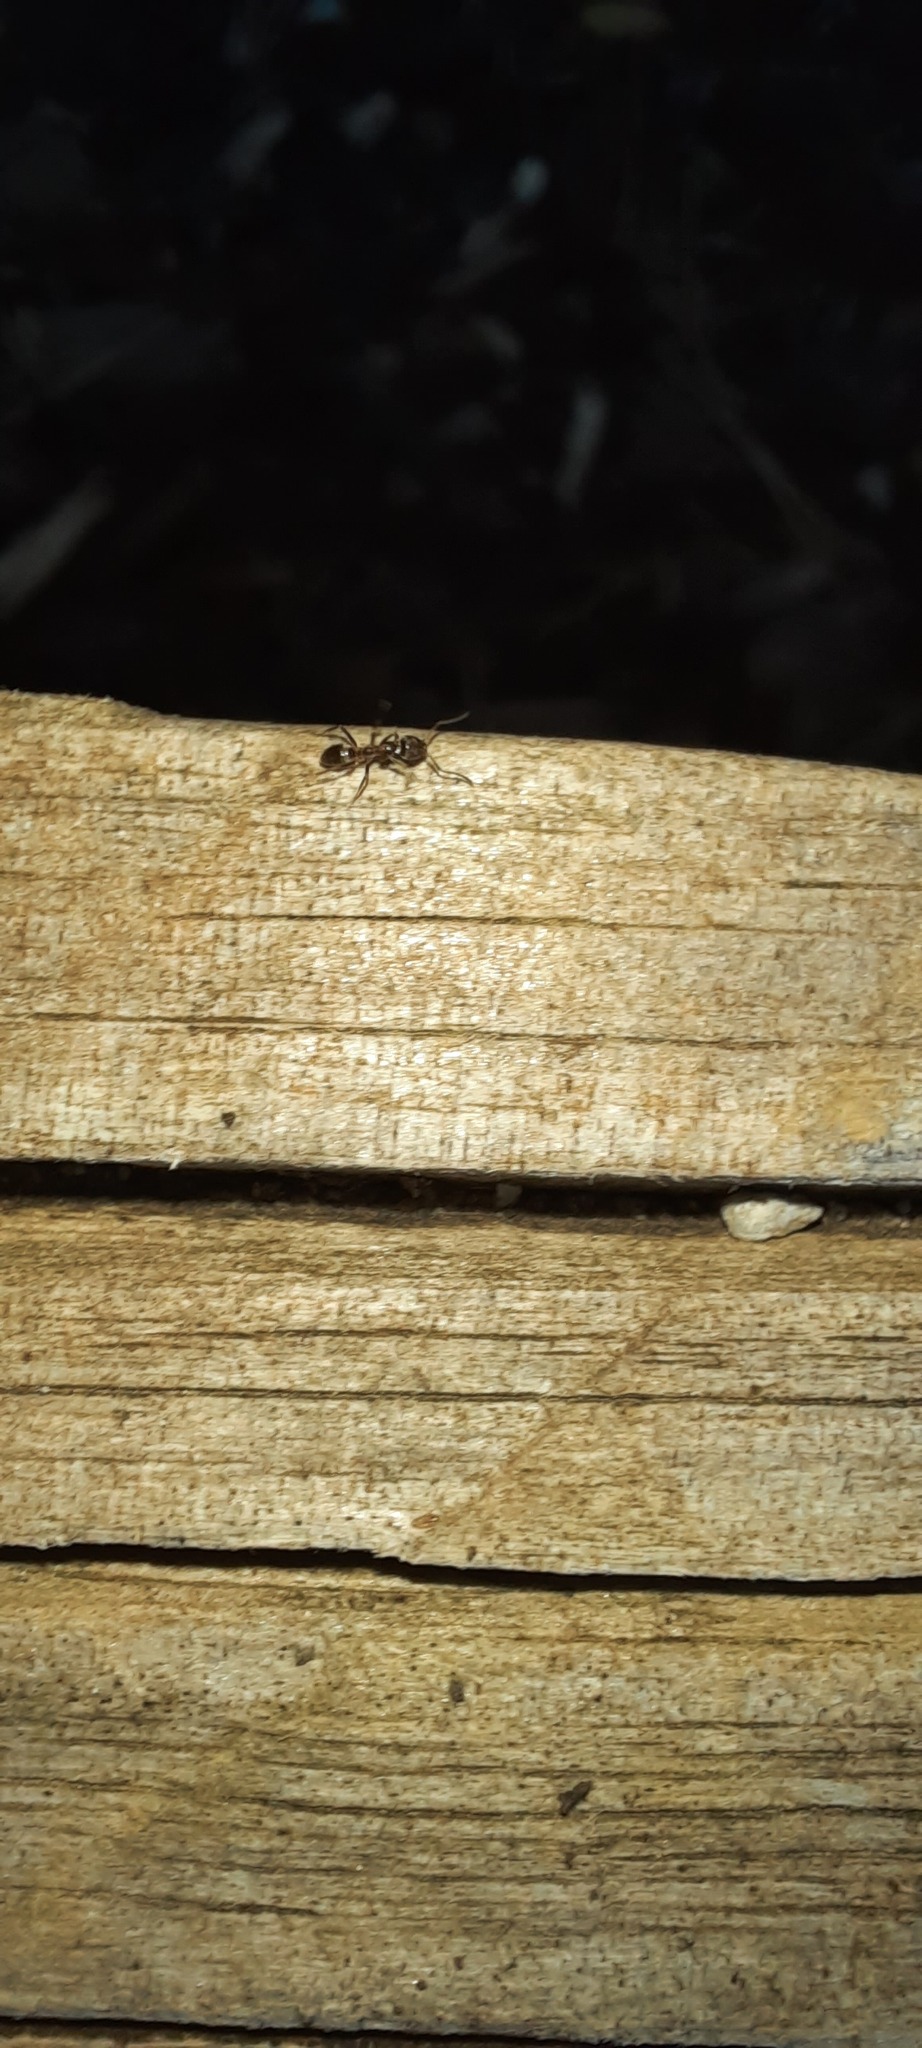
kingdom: Animalia
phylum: Arthropoda
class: Insecta
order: Hymenoptera
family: Formicidae
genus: Linepithema
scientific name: Linepithema humile
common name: Argentine ant
